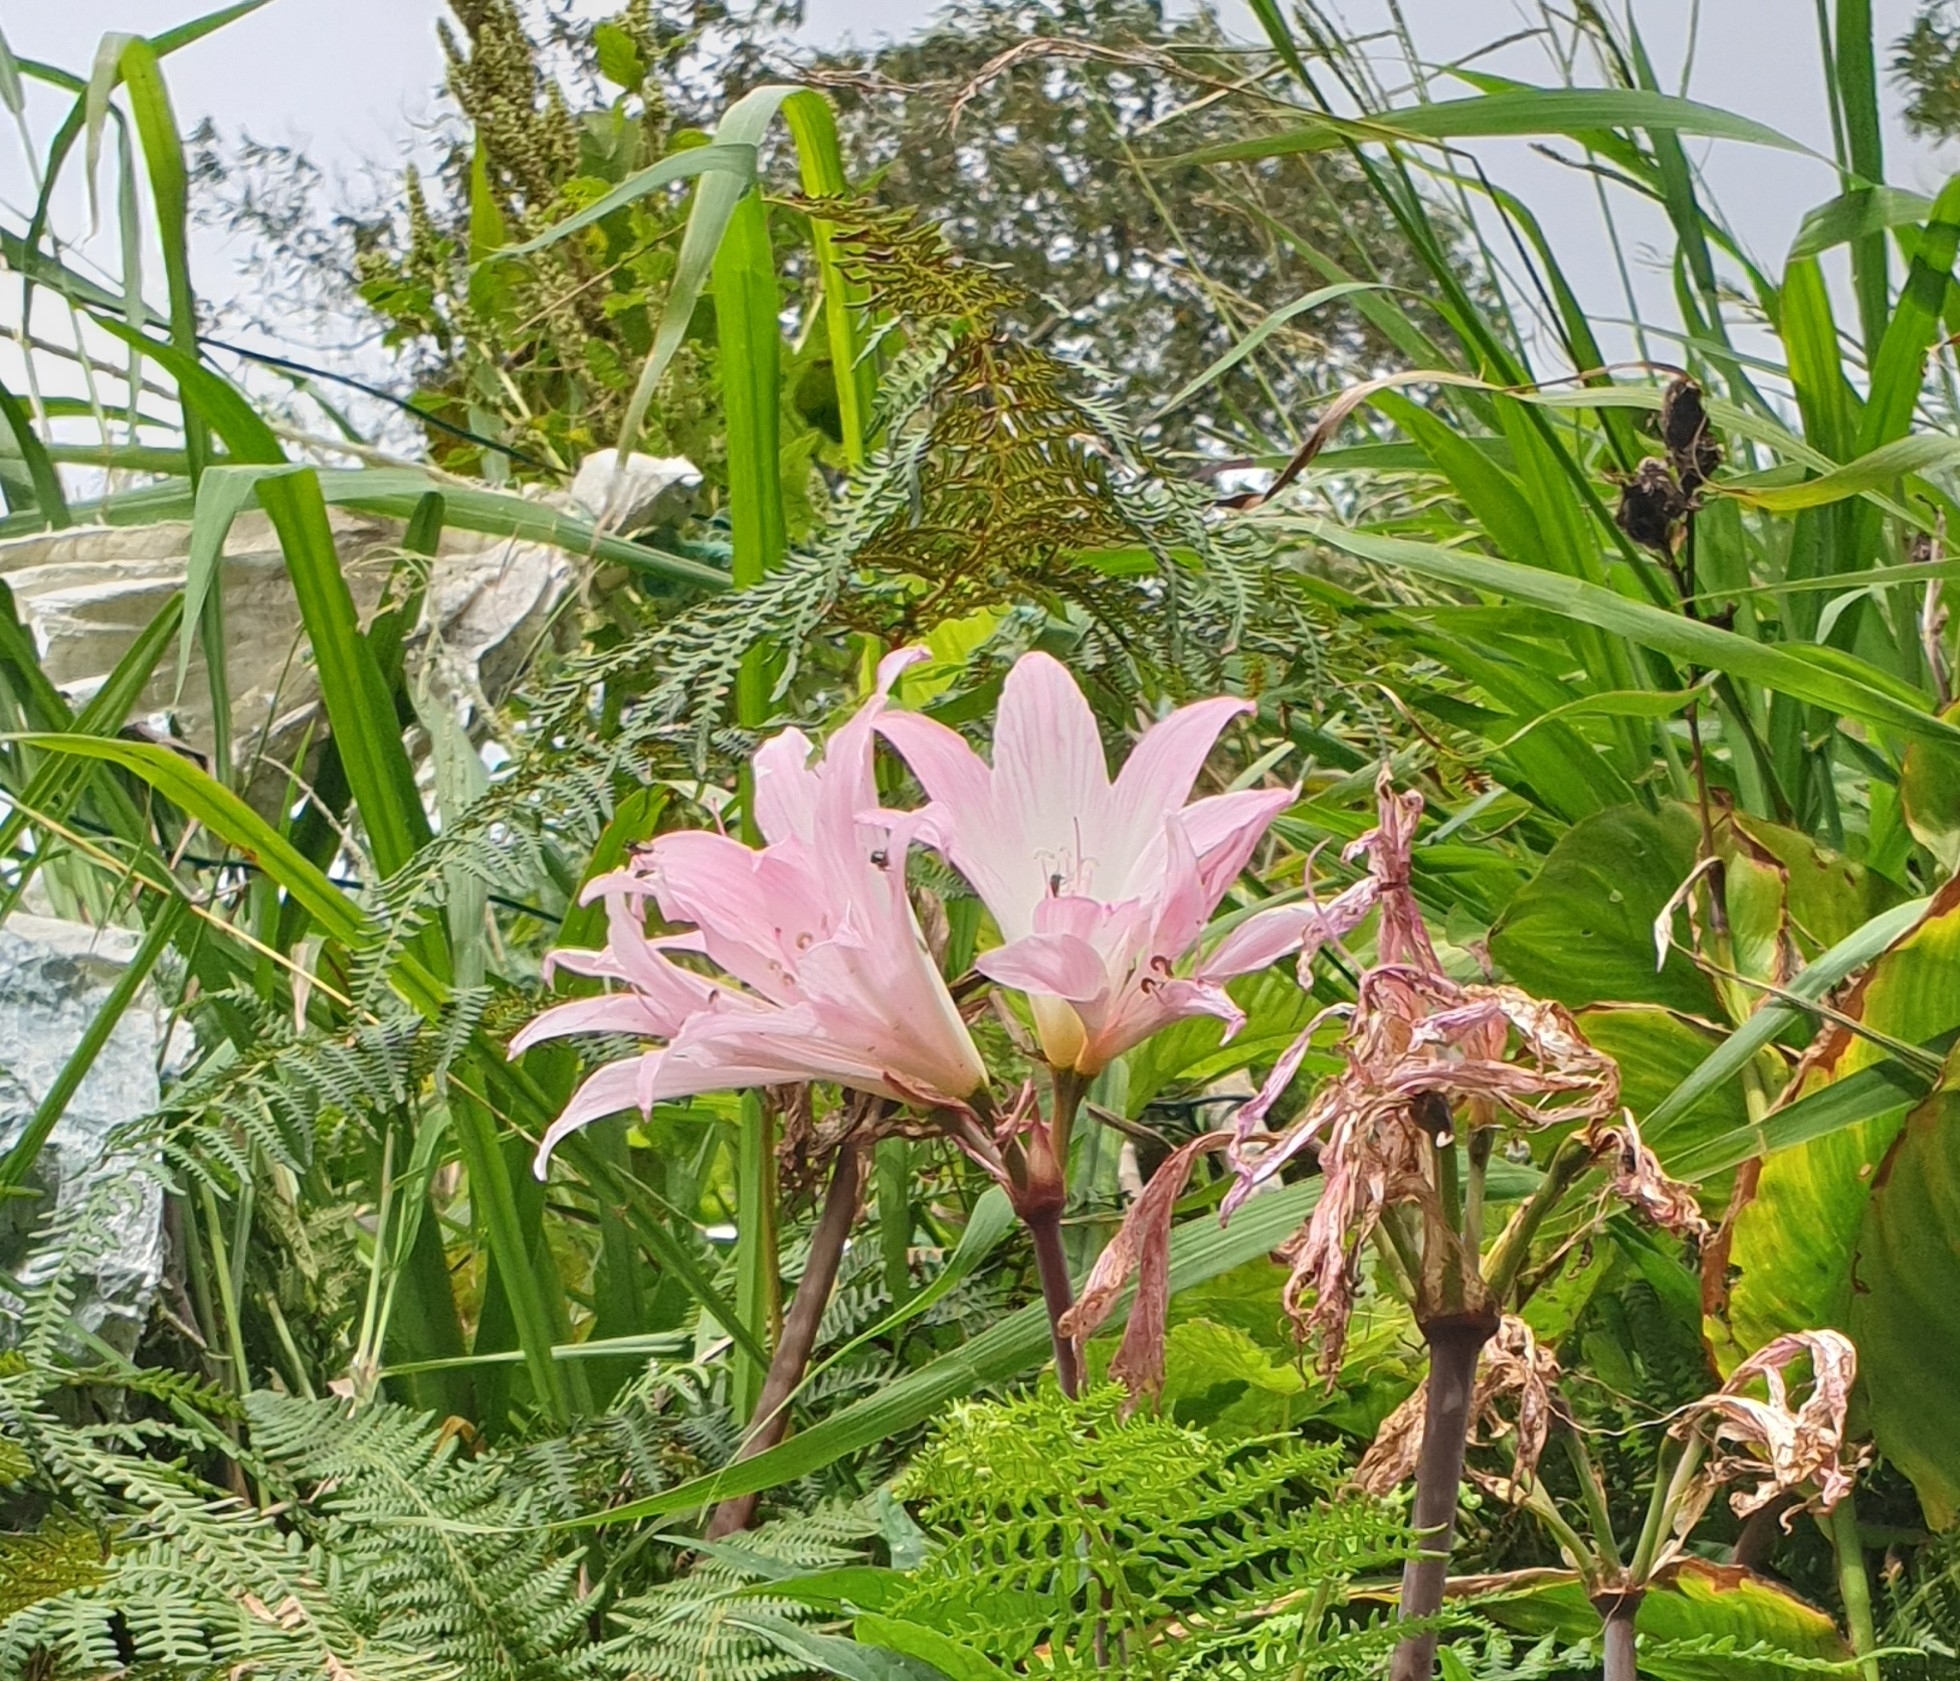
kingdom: Plantae
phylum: Tracheophyta
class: Liliopsida
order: Asparagales
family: Amaryllidaceae
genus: Amaryllis
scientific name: Amaryllis belladonna
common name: Jersey lily
